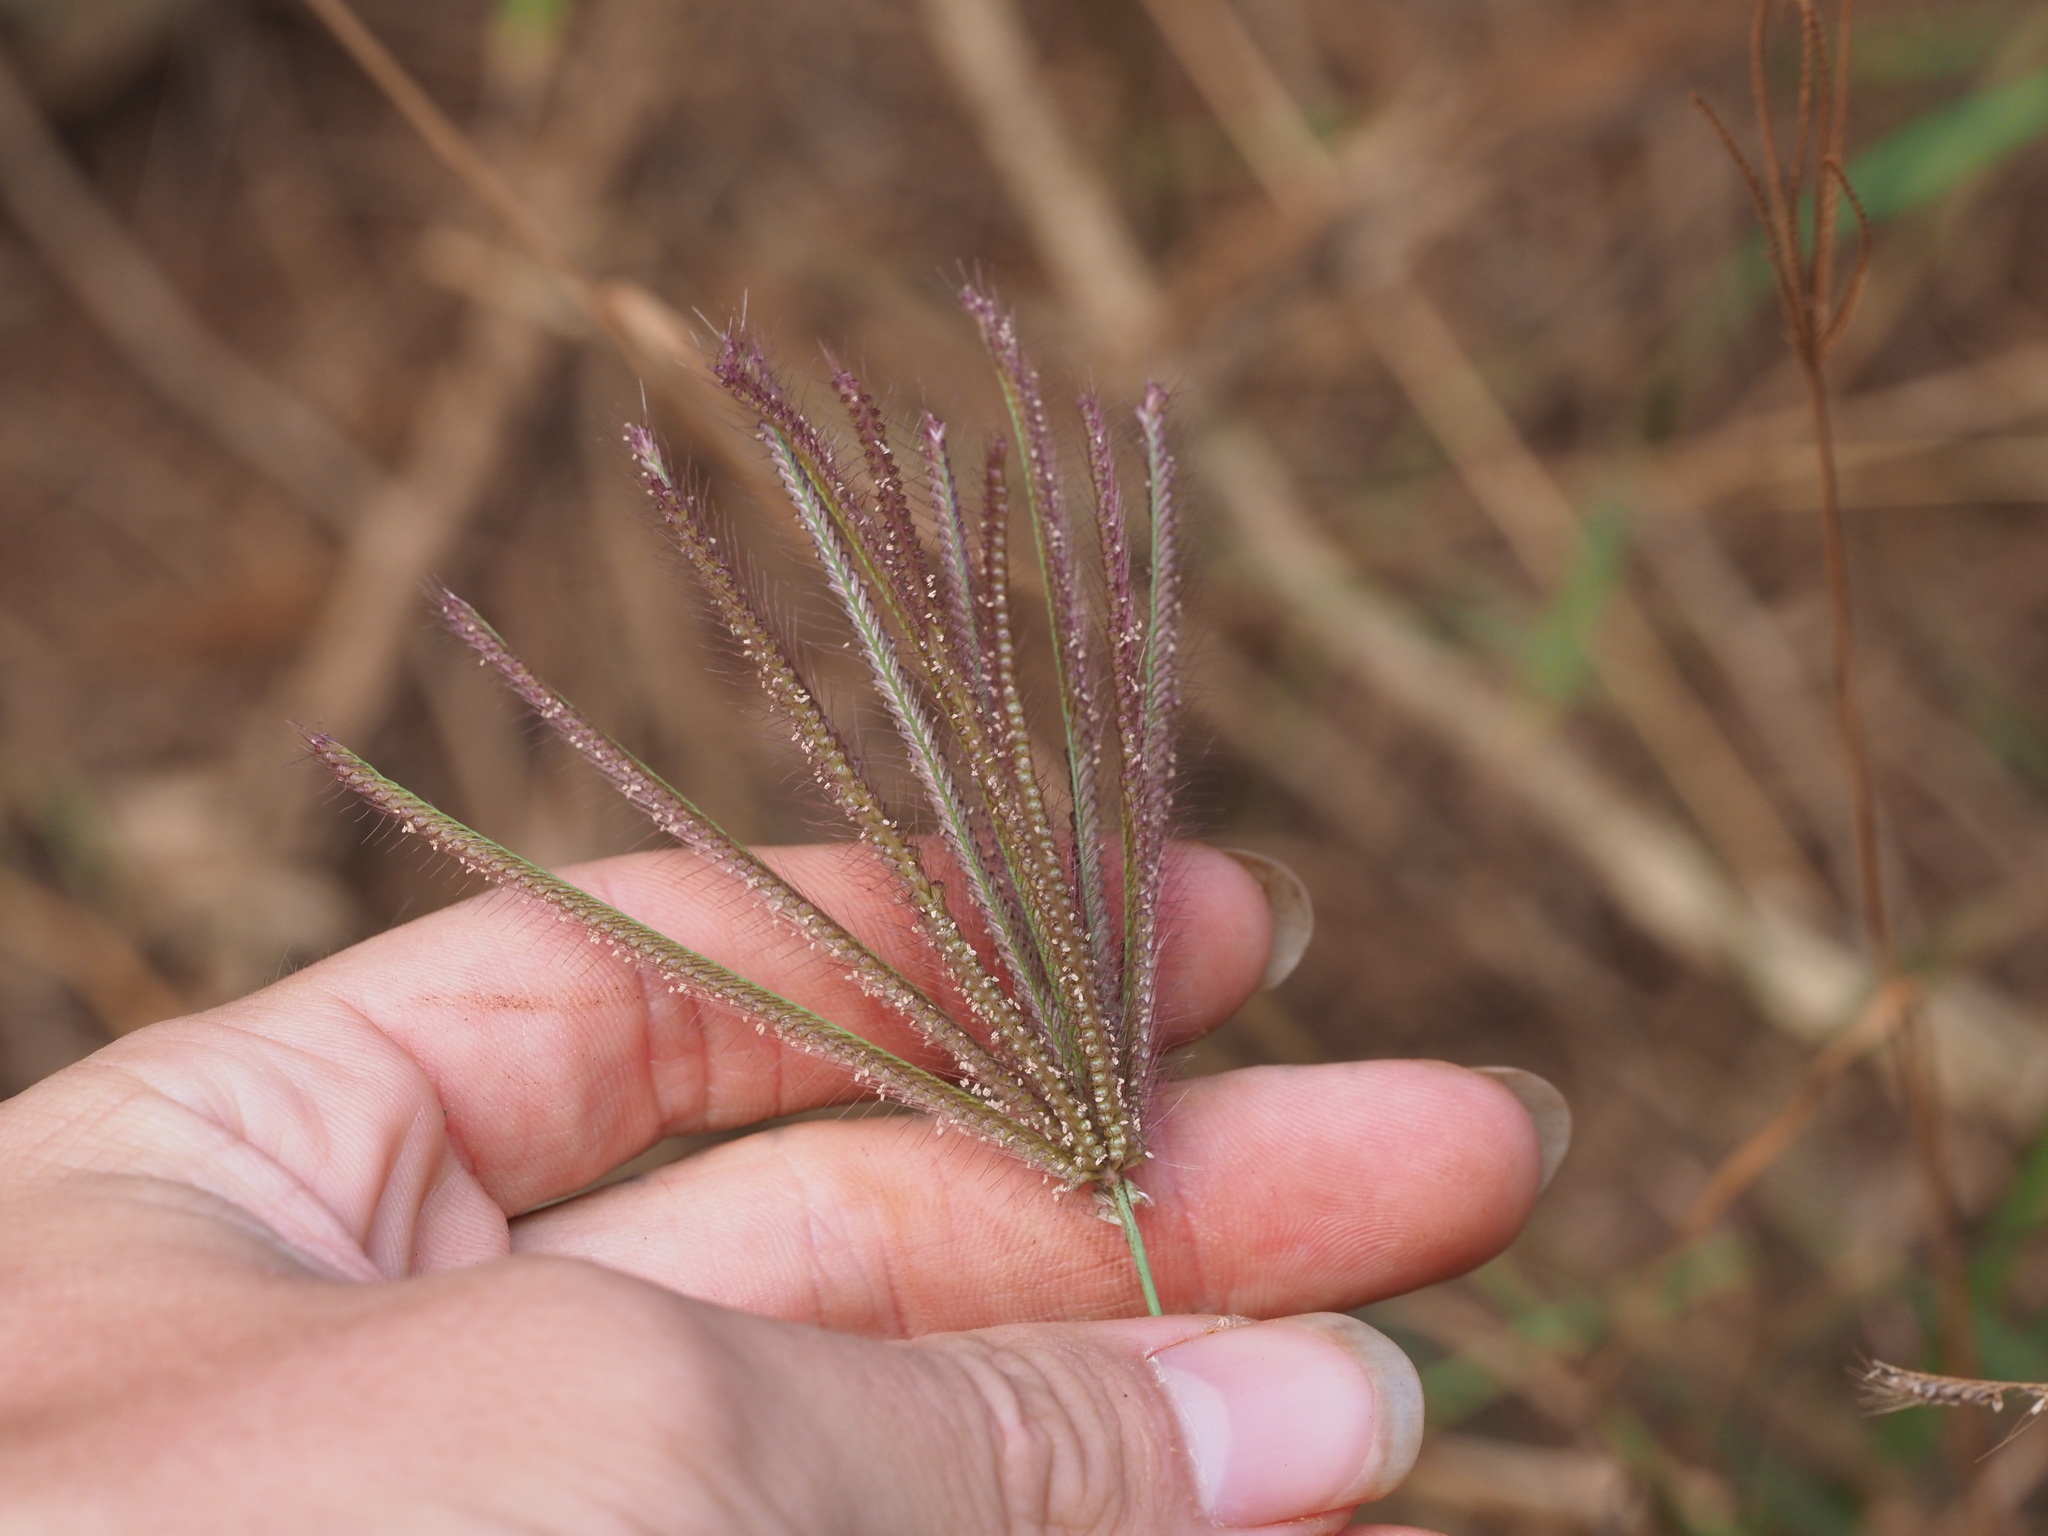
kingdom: Plantae
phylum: Tracheophyta
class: Liliopsida
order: Poales
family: Poaceae
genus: Chloris
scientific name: Chloris barbata
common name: Swollen fingergrass
